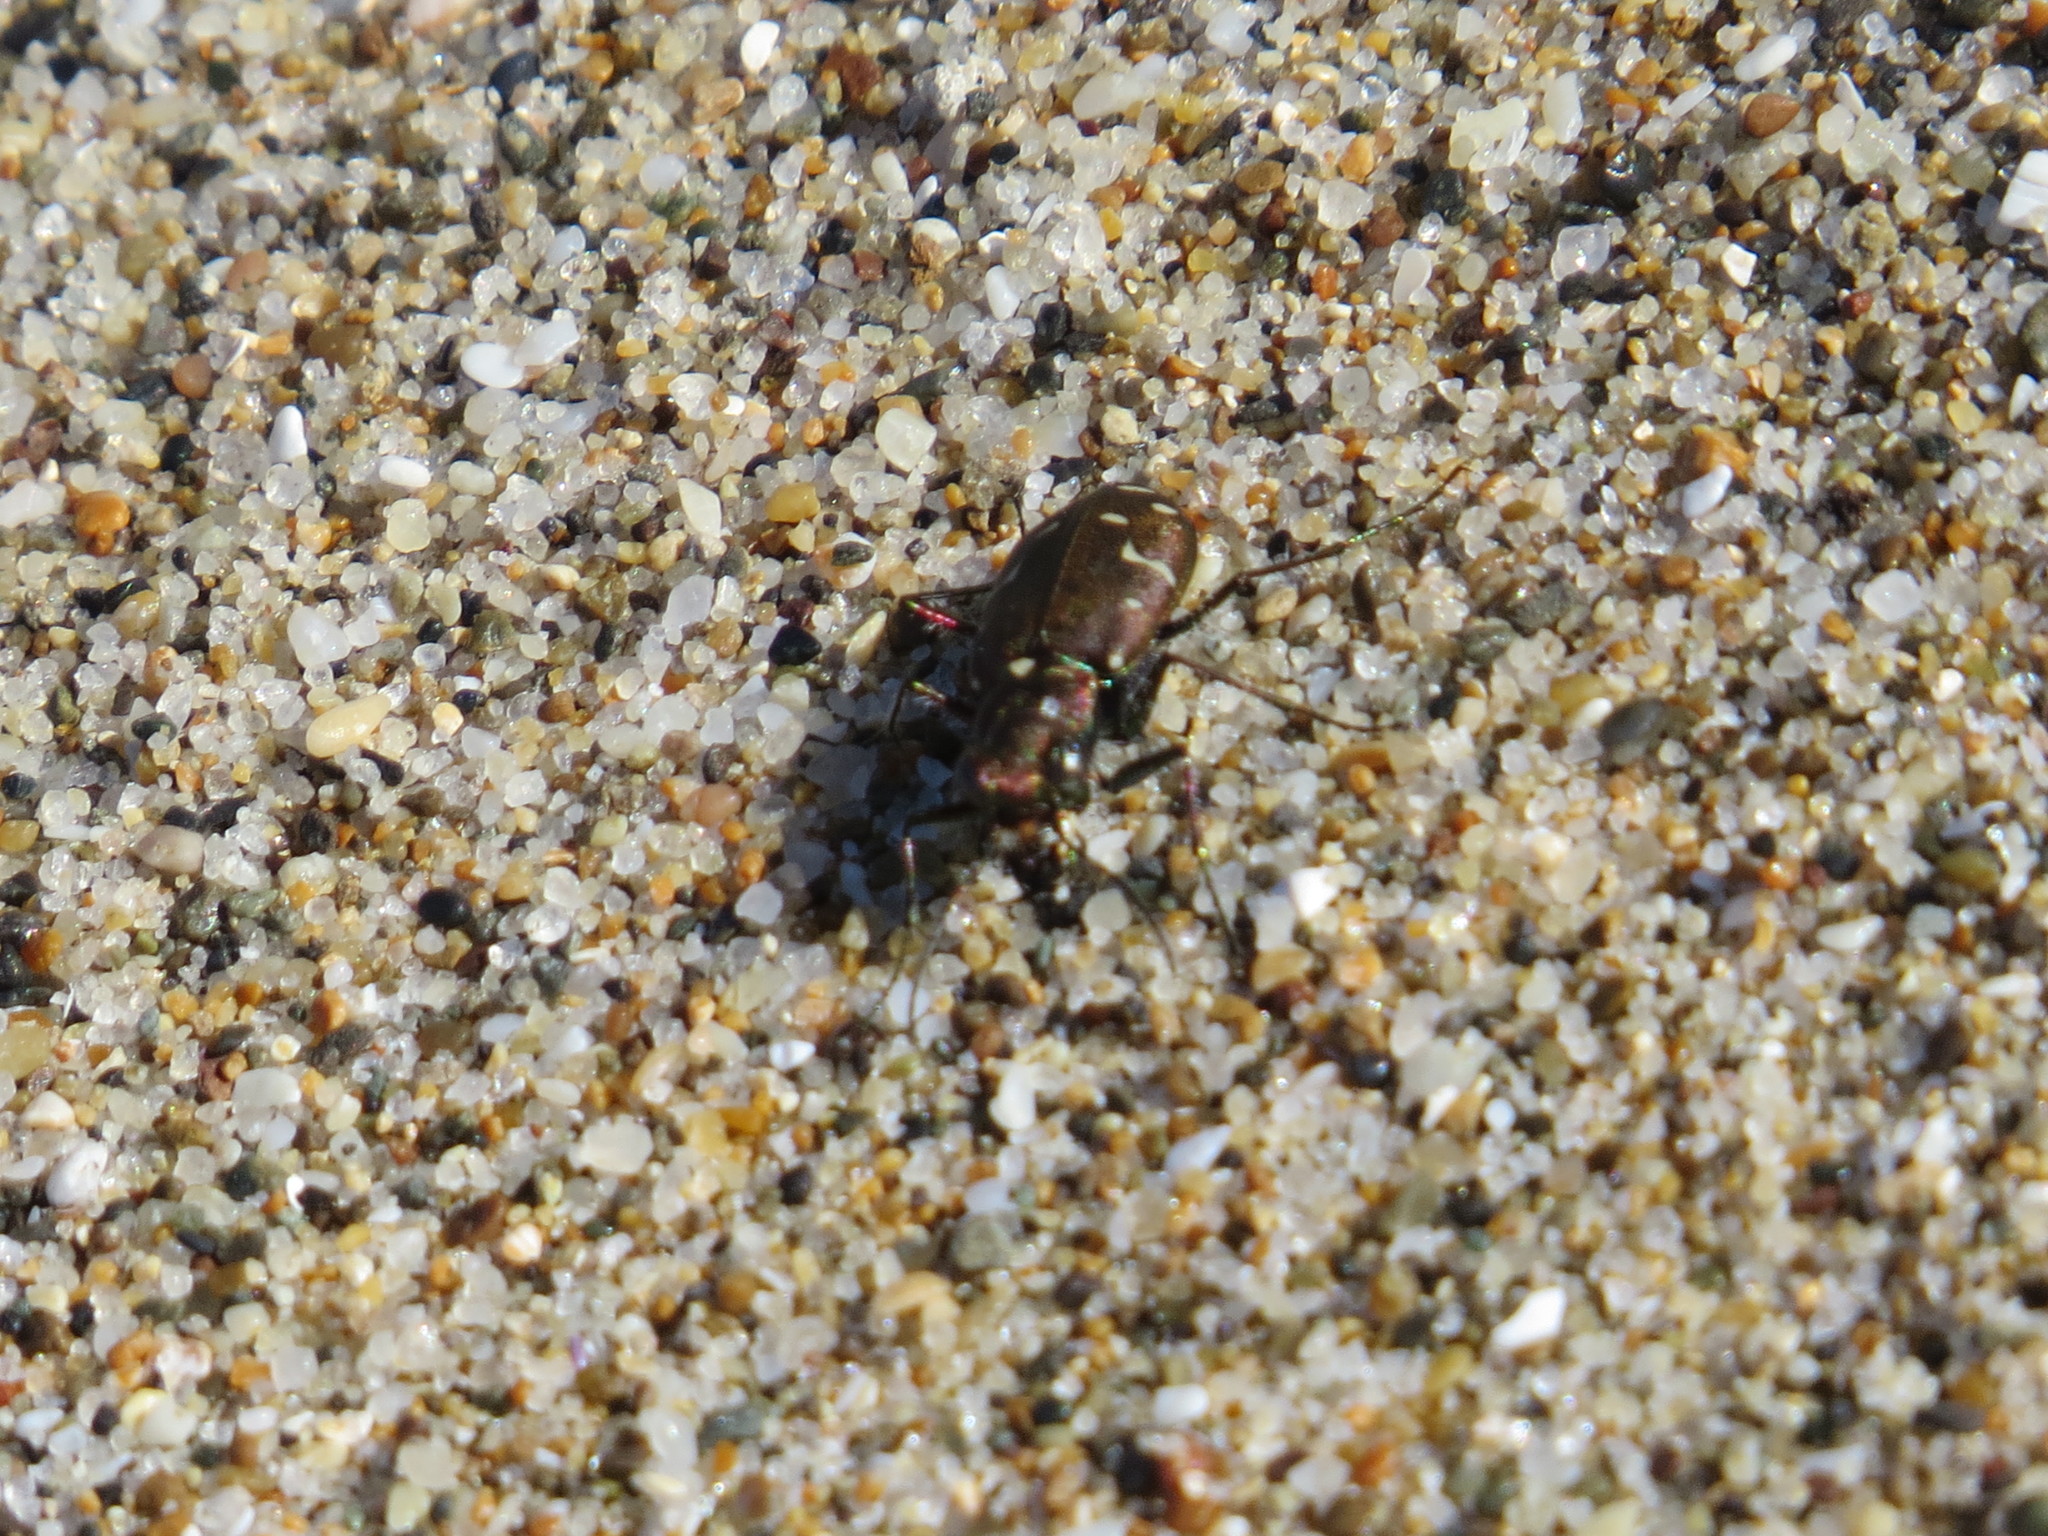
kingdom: Animalia
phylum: Arthropoda
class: Insecta
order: Coleoptera
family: Carabidae
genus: Cicindela
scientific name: Cicindela oregona
